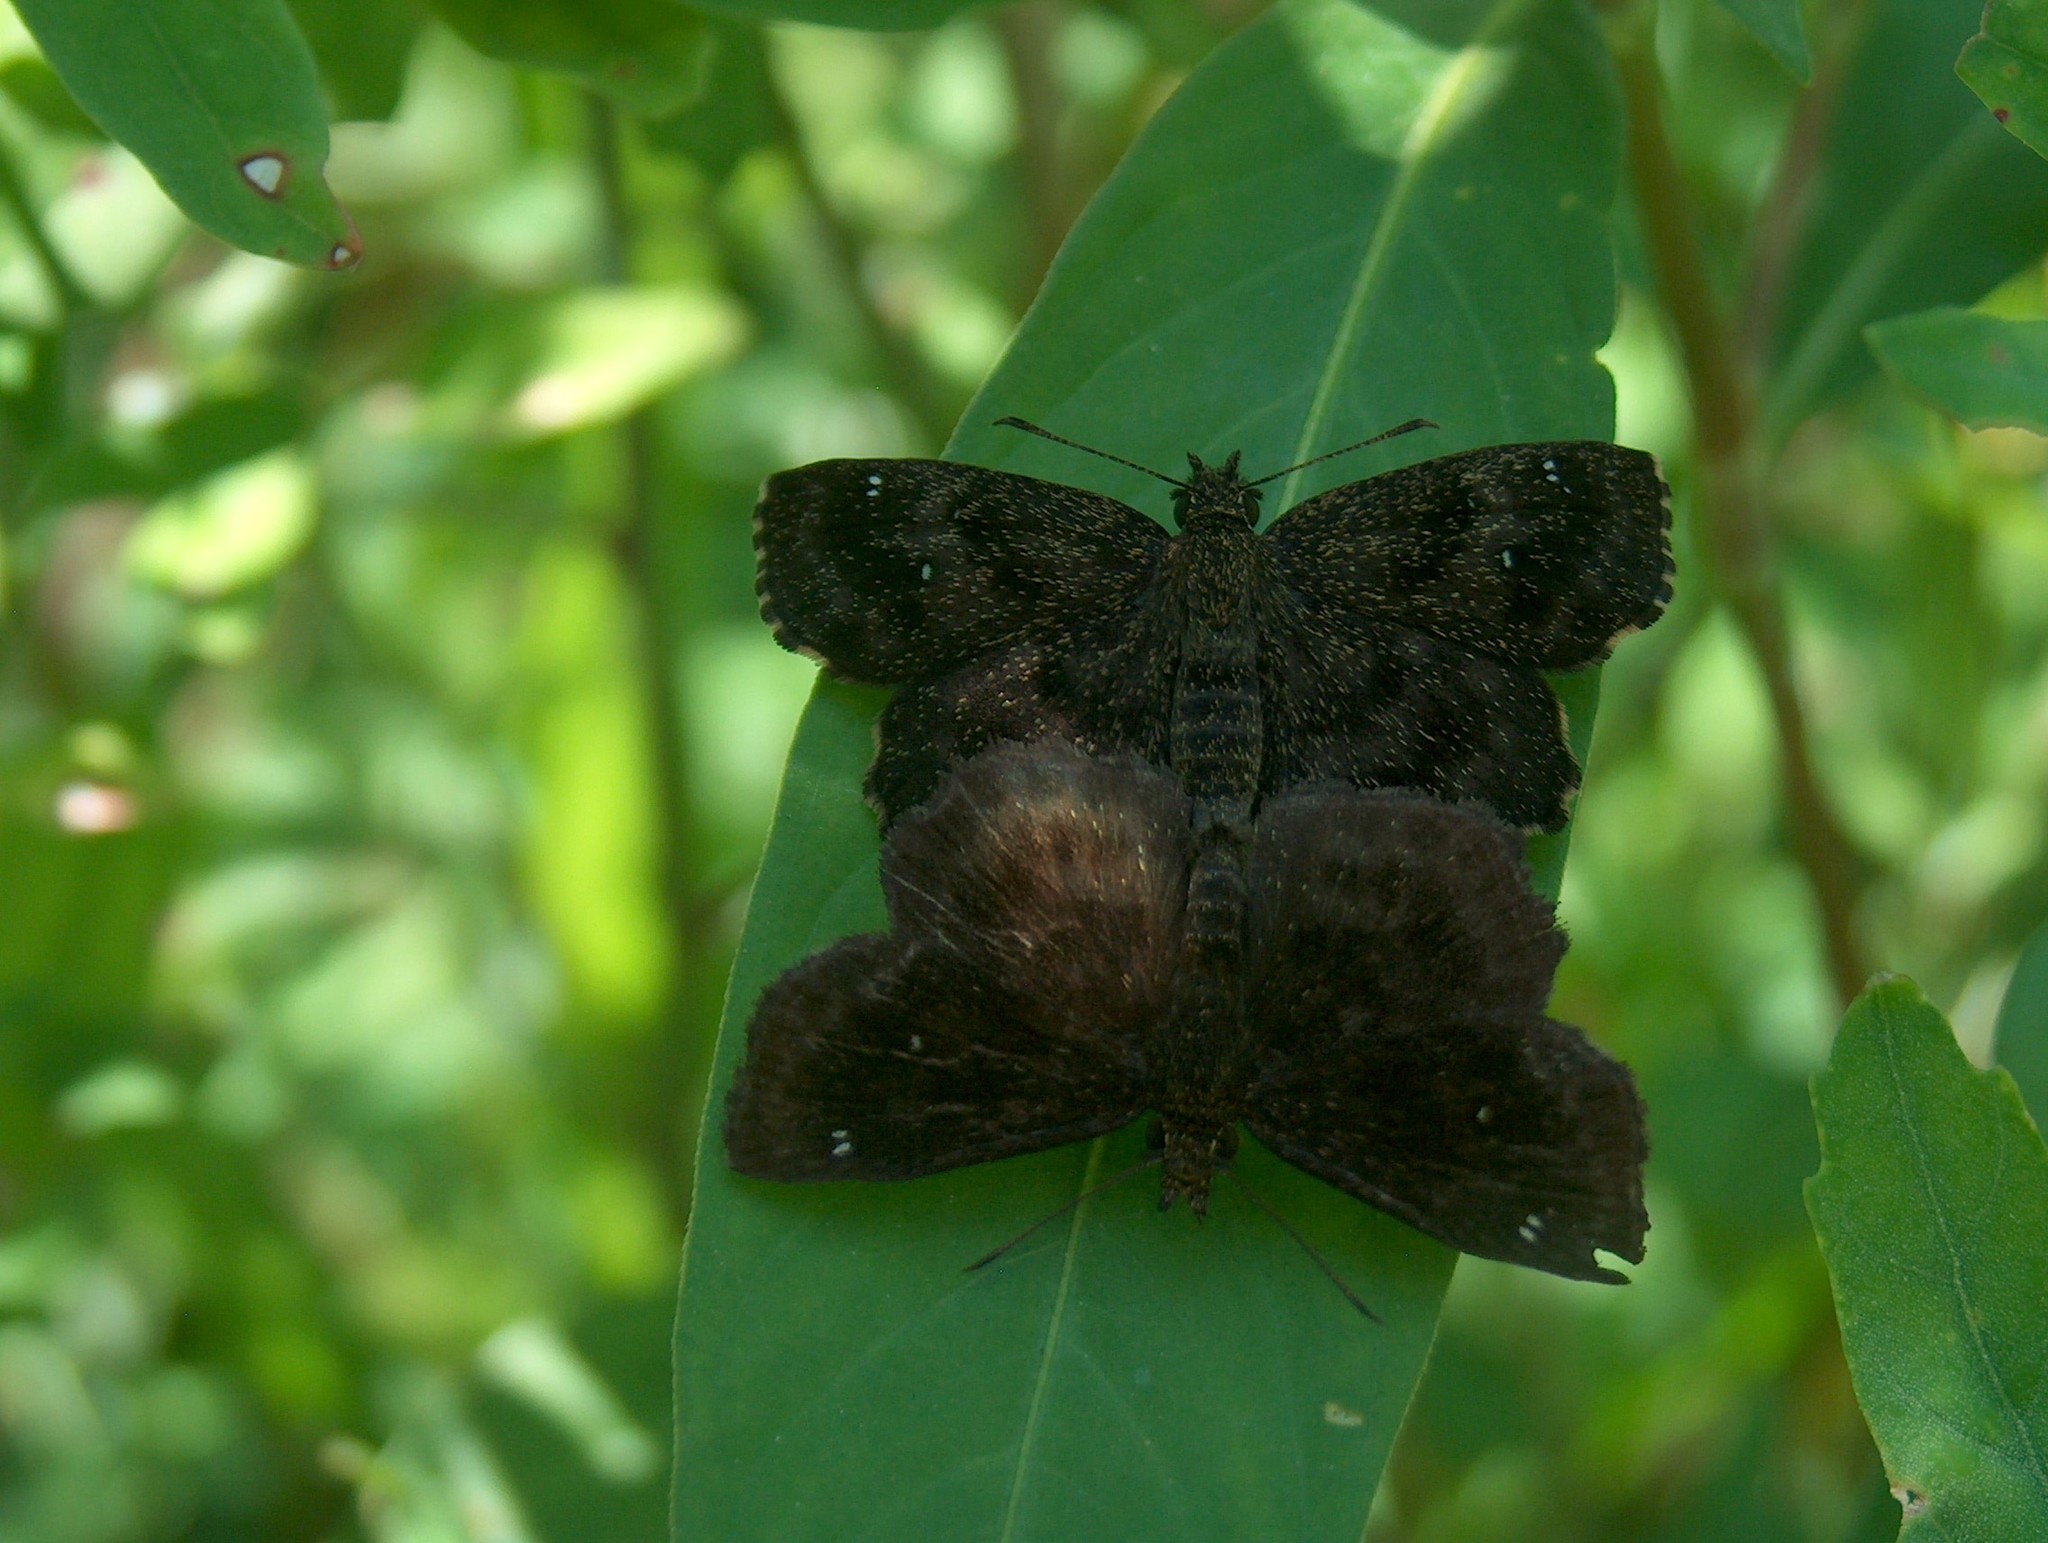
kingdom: Animalia
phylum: Arthropoda
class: Insecta
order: Lepidoptera
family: Hesperiidae
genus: Staphylus
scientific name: Staphylus mazans
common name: Mazans scallopwing
